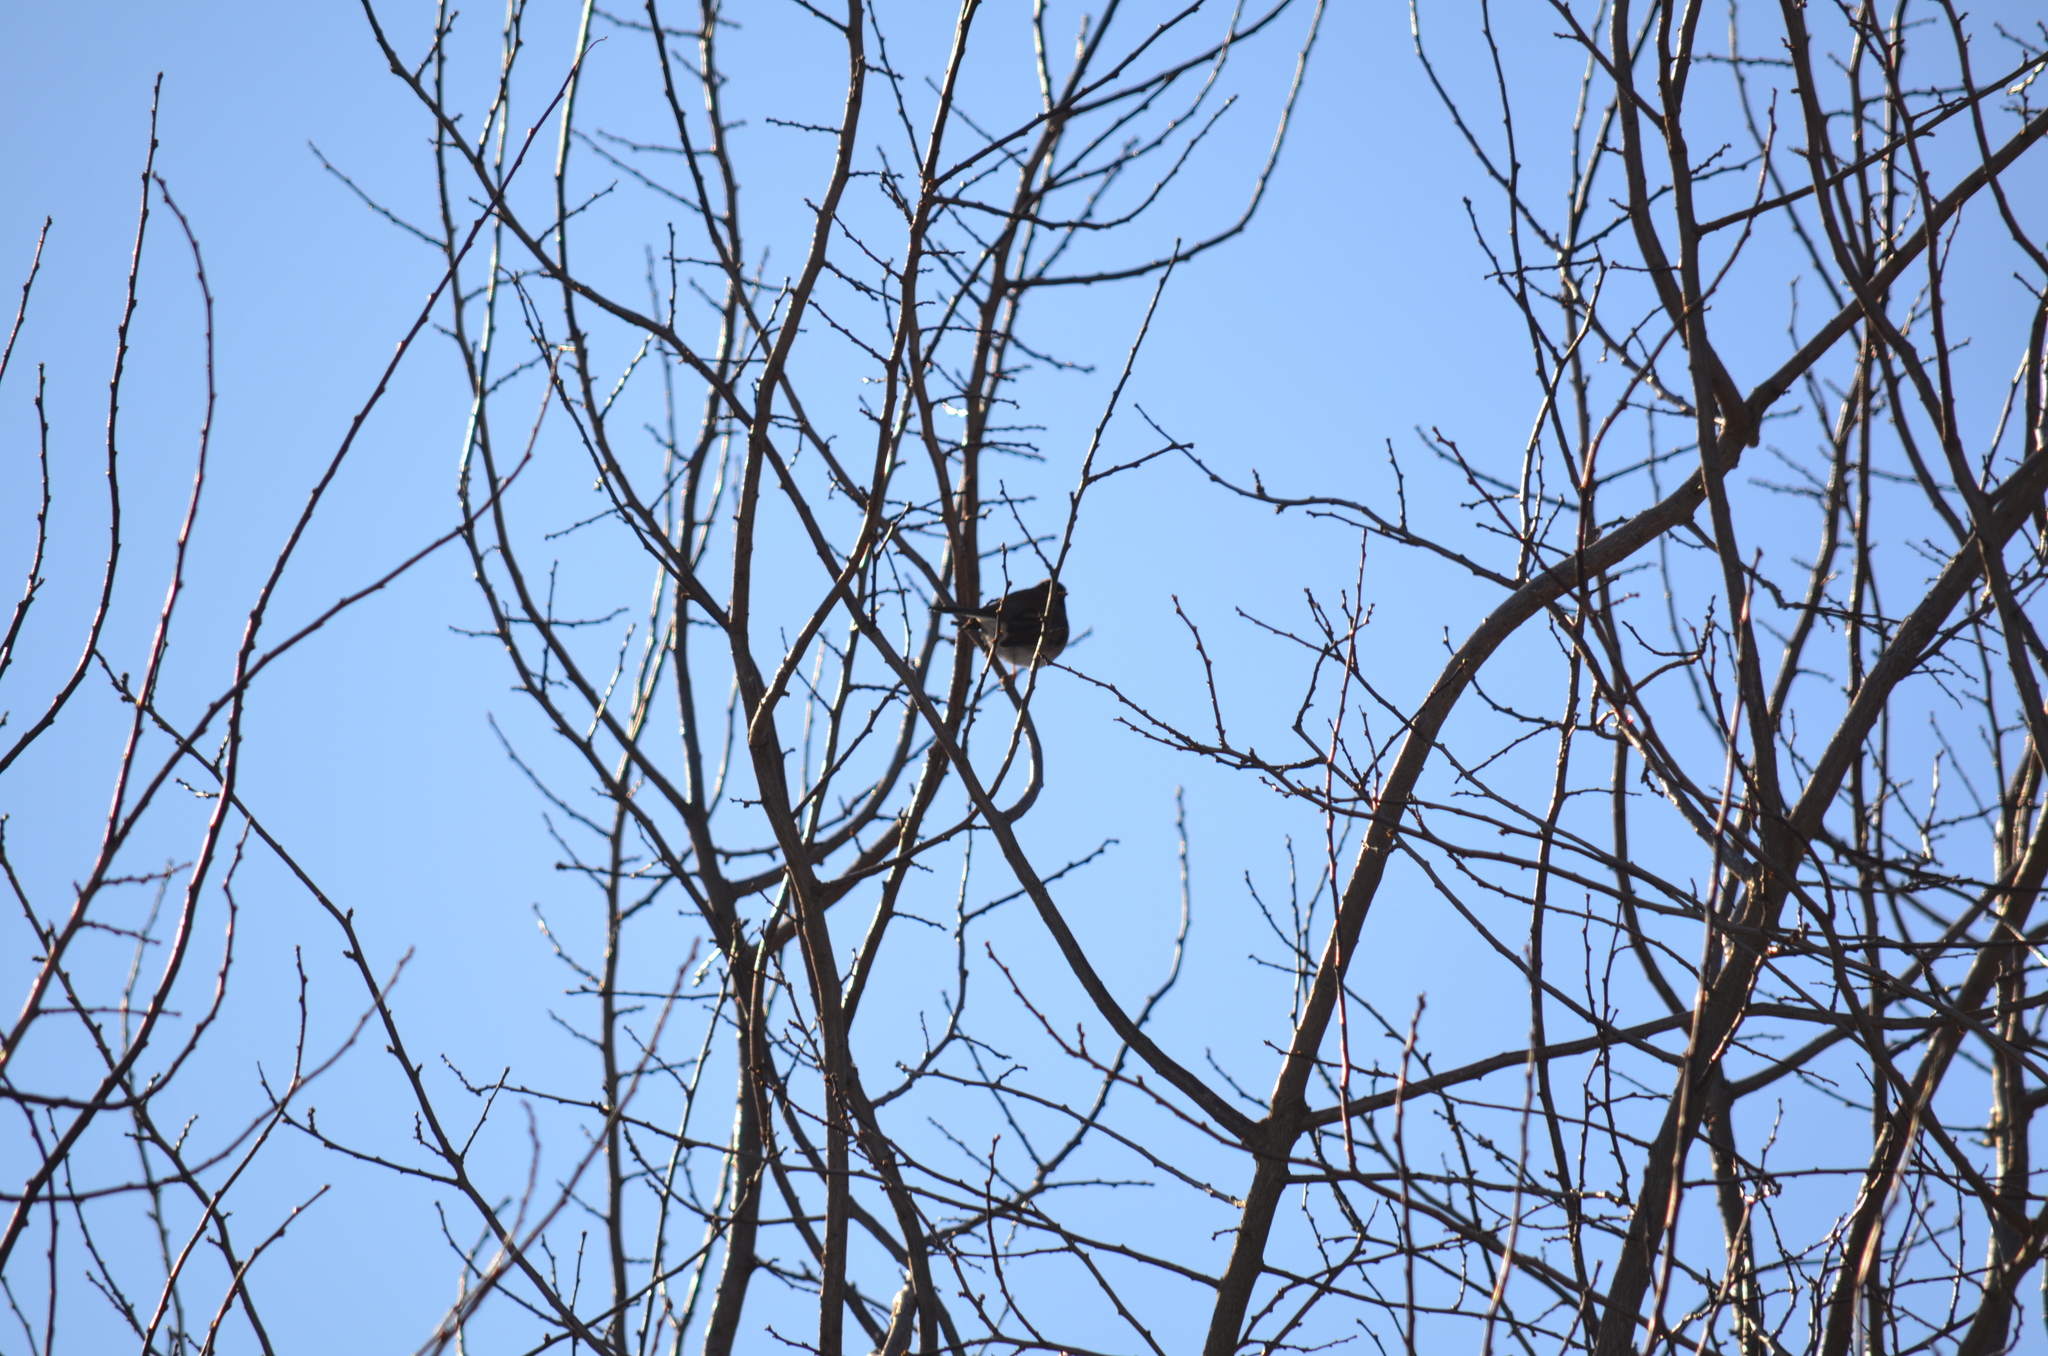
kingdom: Animalia
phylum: Chordata
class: Aves
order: Passeriformes
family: Passerellidae
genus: Passerella
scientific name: Passerella iliaca
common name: Fox sparrow
